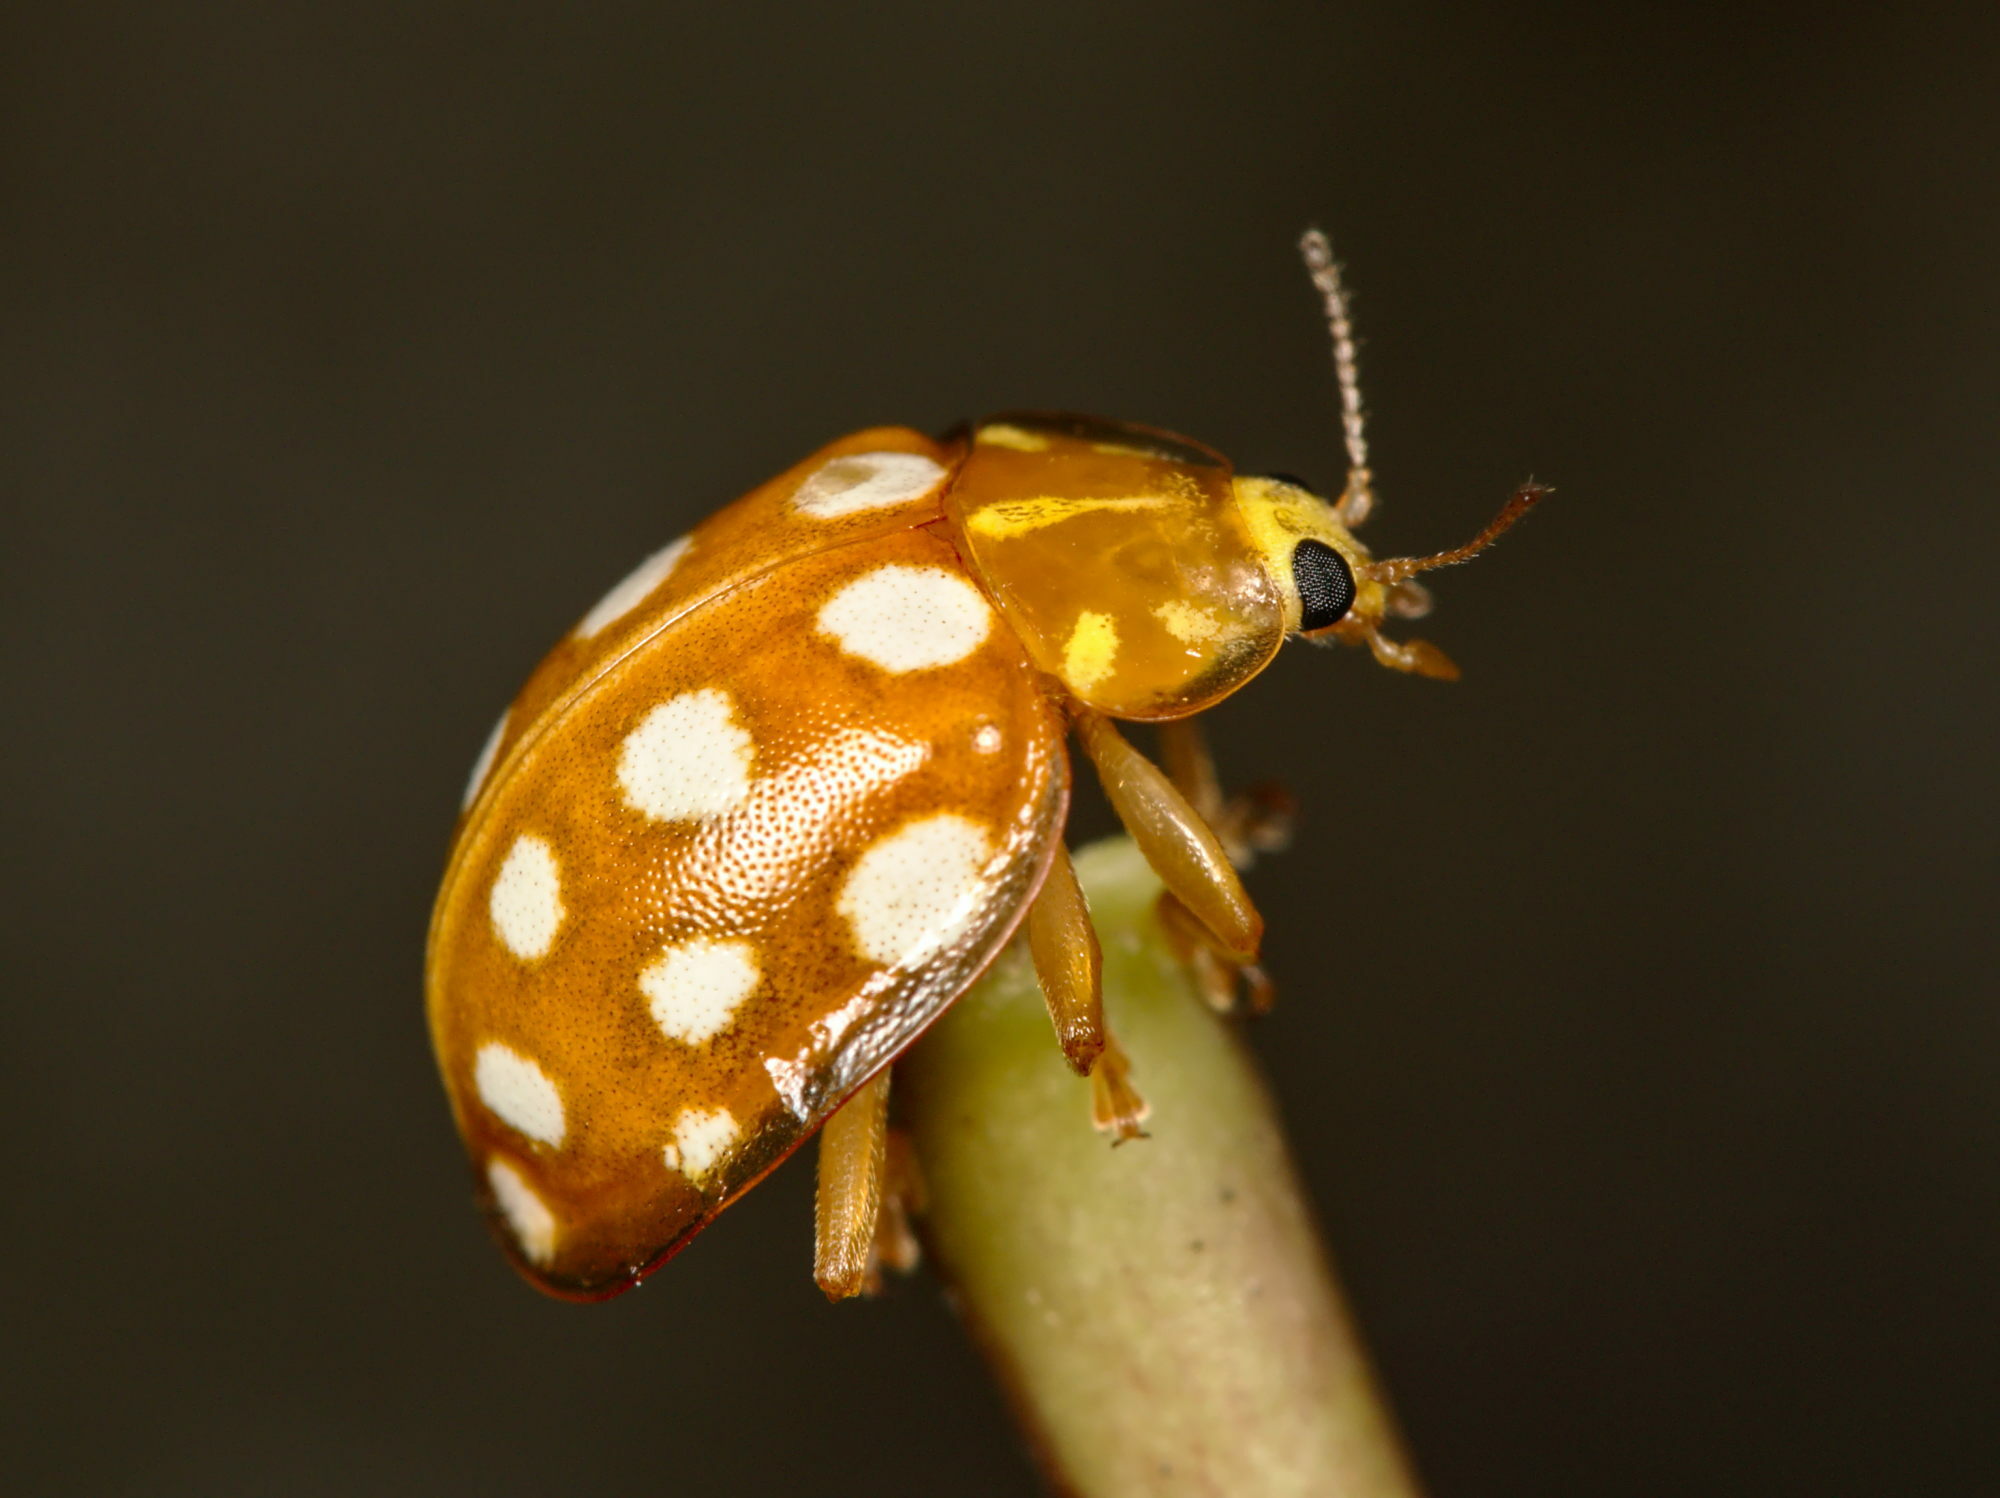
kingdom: Animalia
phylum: Arthropoda
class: Insecta
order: Coleoptera
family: Coccinellidae
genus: Halyzia
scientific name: Halyzia sedecimguttata
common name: Orange ladybird
